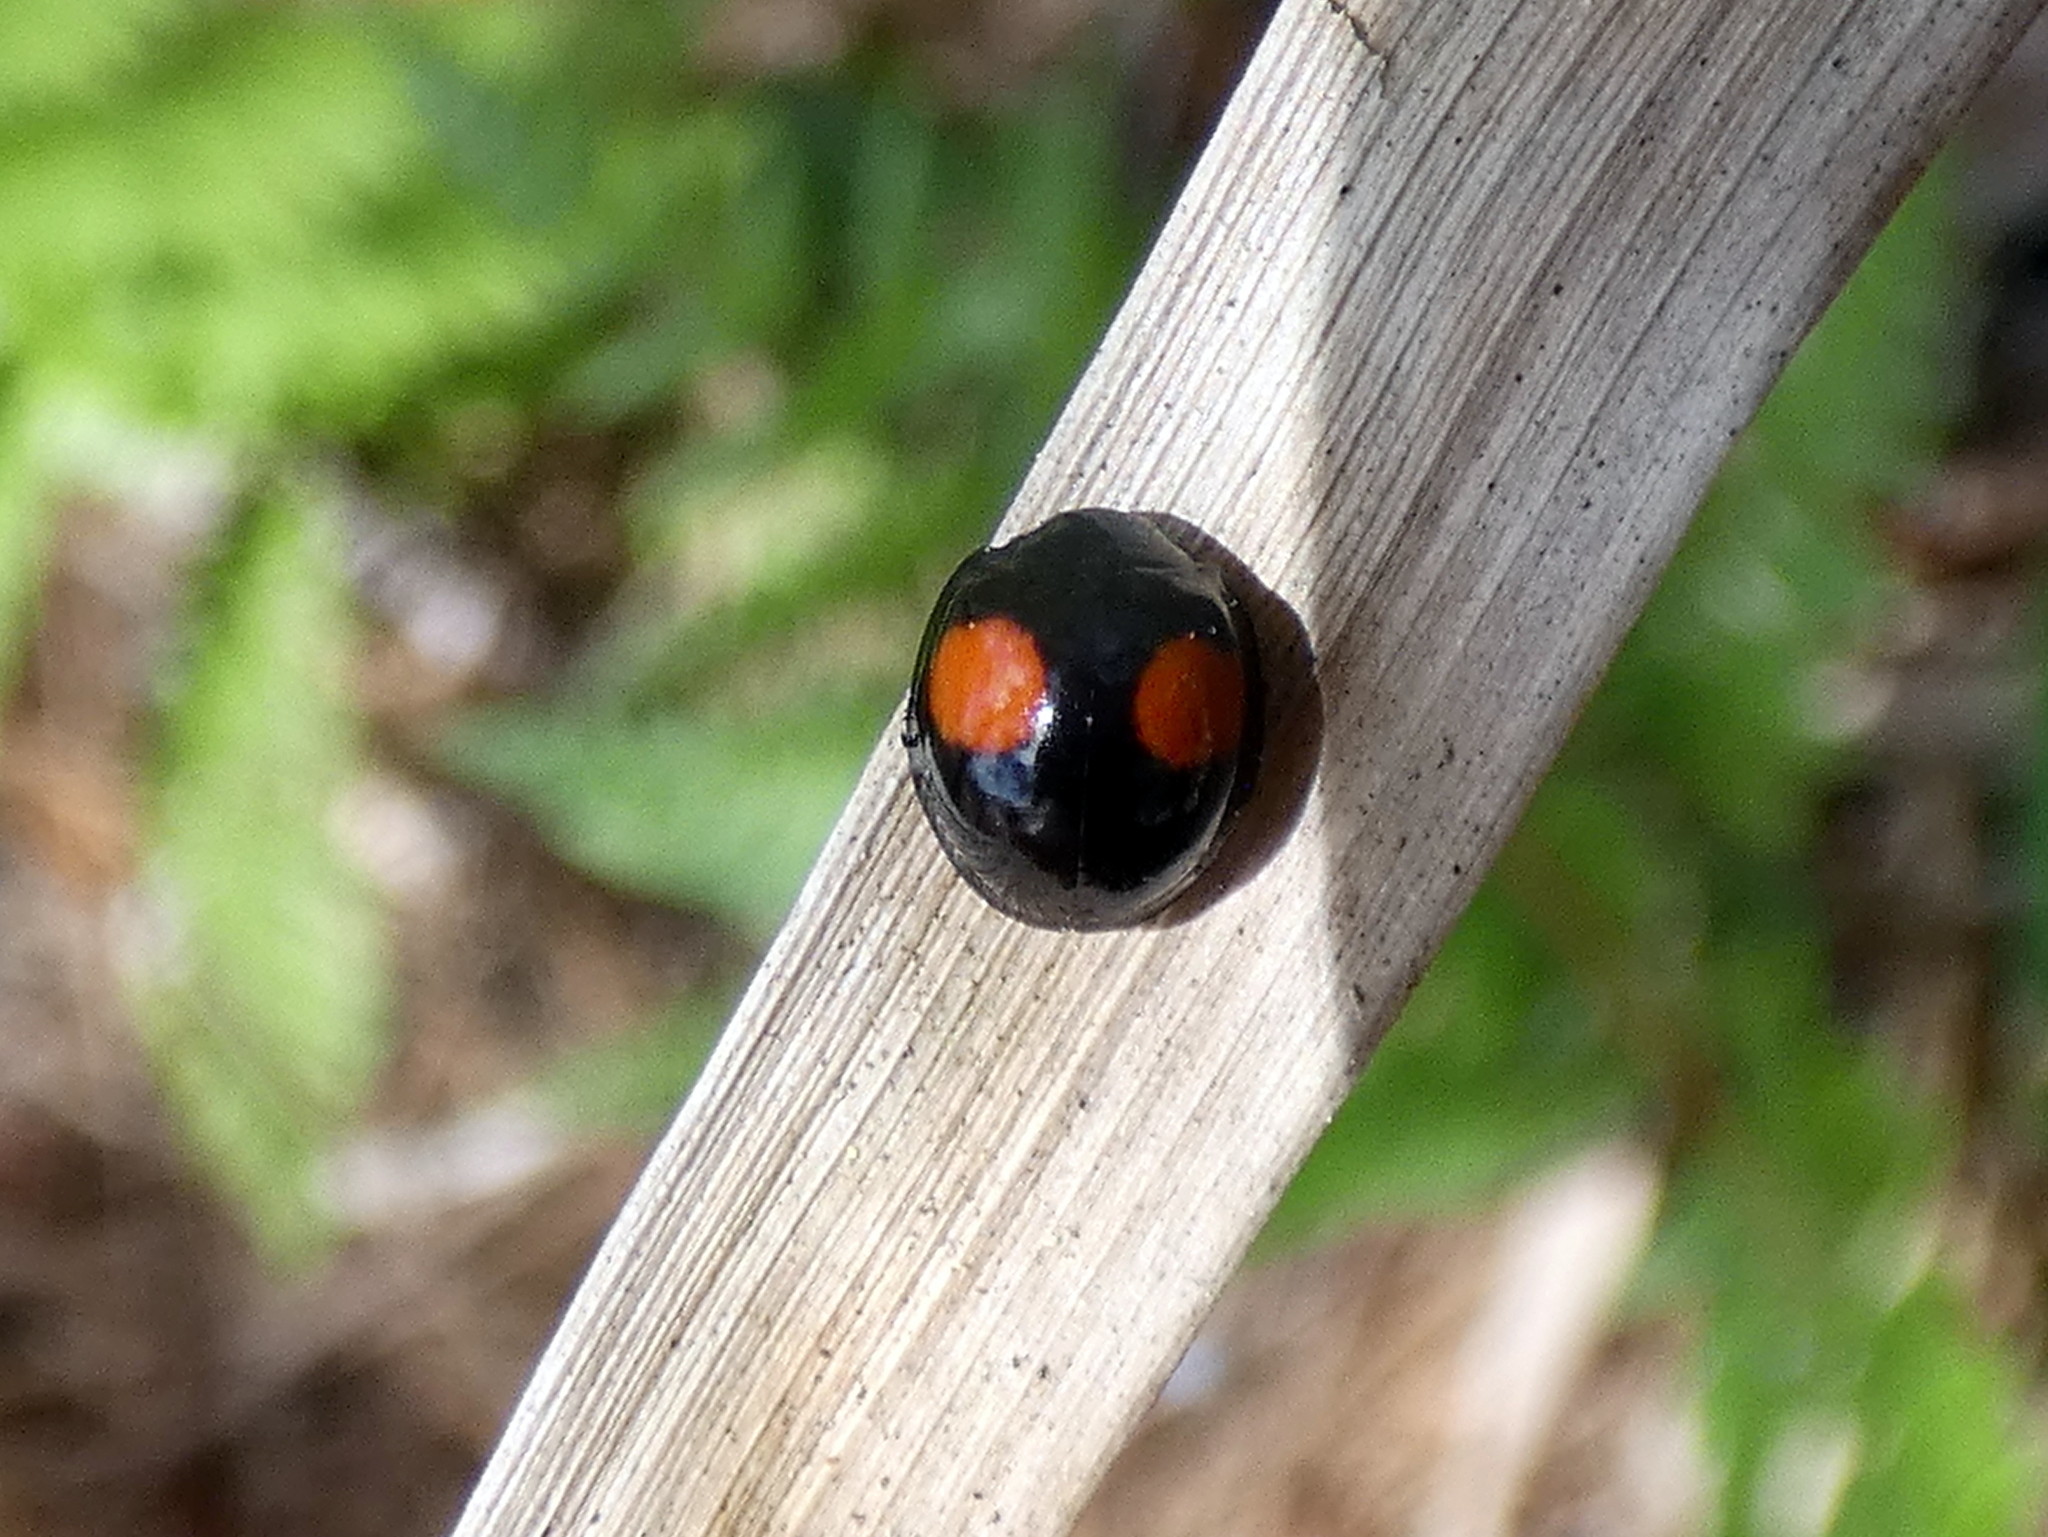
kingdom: Animalia
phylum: Arthropoda
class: Insecta
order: Coleoptera
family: Coccinellidae
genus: Chilocorus
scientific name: Chilocorus cacti
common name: Cactus lady beetle
